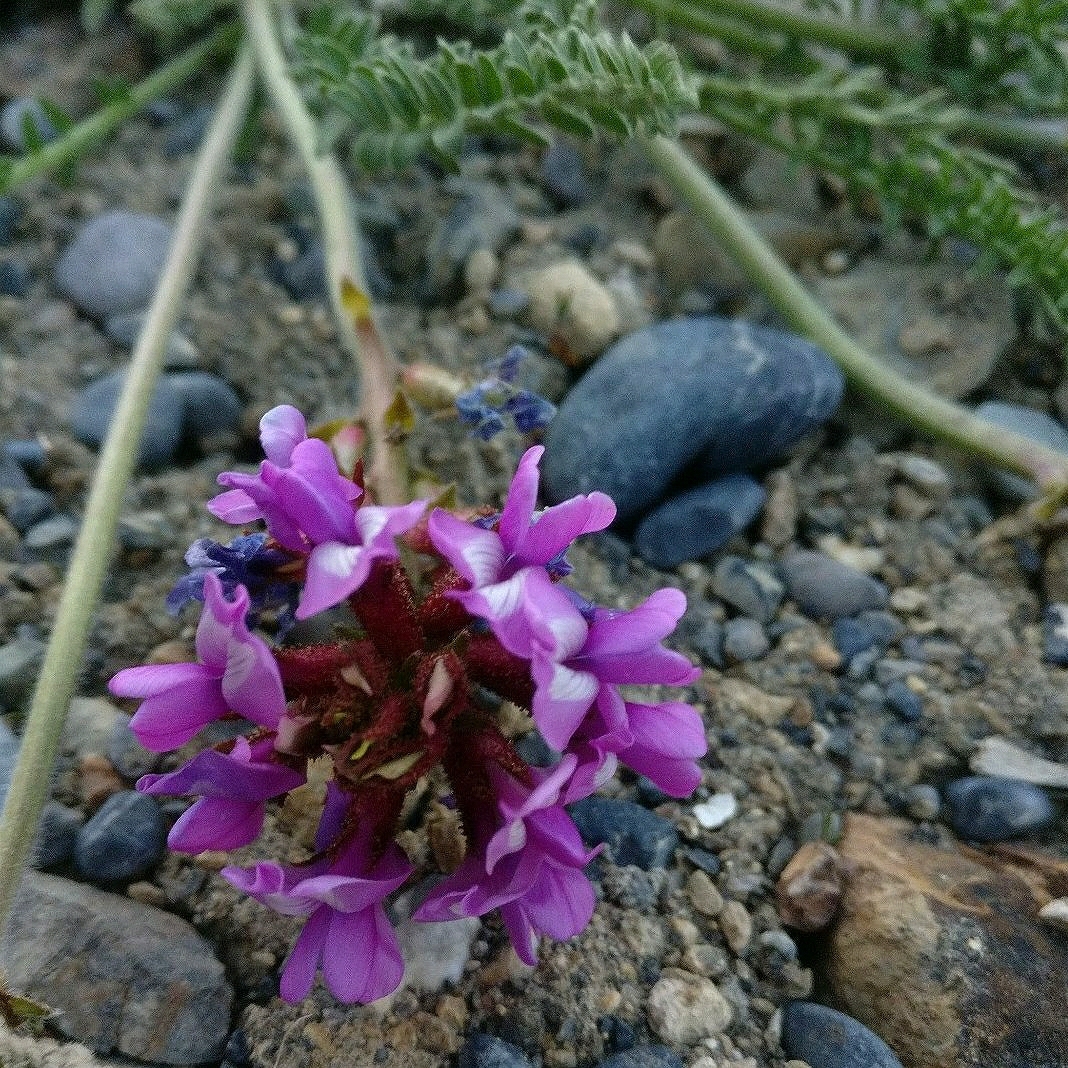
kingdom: Plantae
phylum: Tracheophyta
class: Magnoliopsida
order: Fabales
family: Fabaceae
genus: Oxytropis
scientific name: Oxytropis chiliophylla
